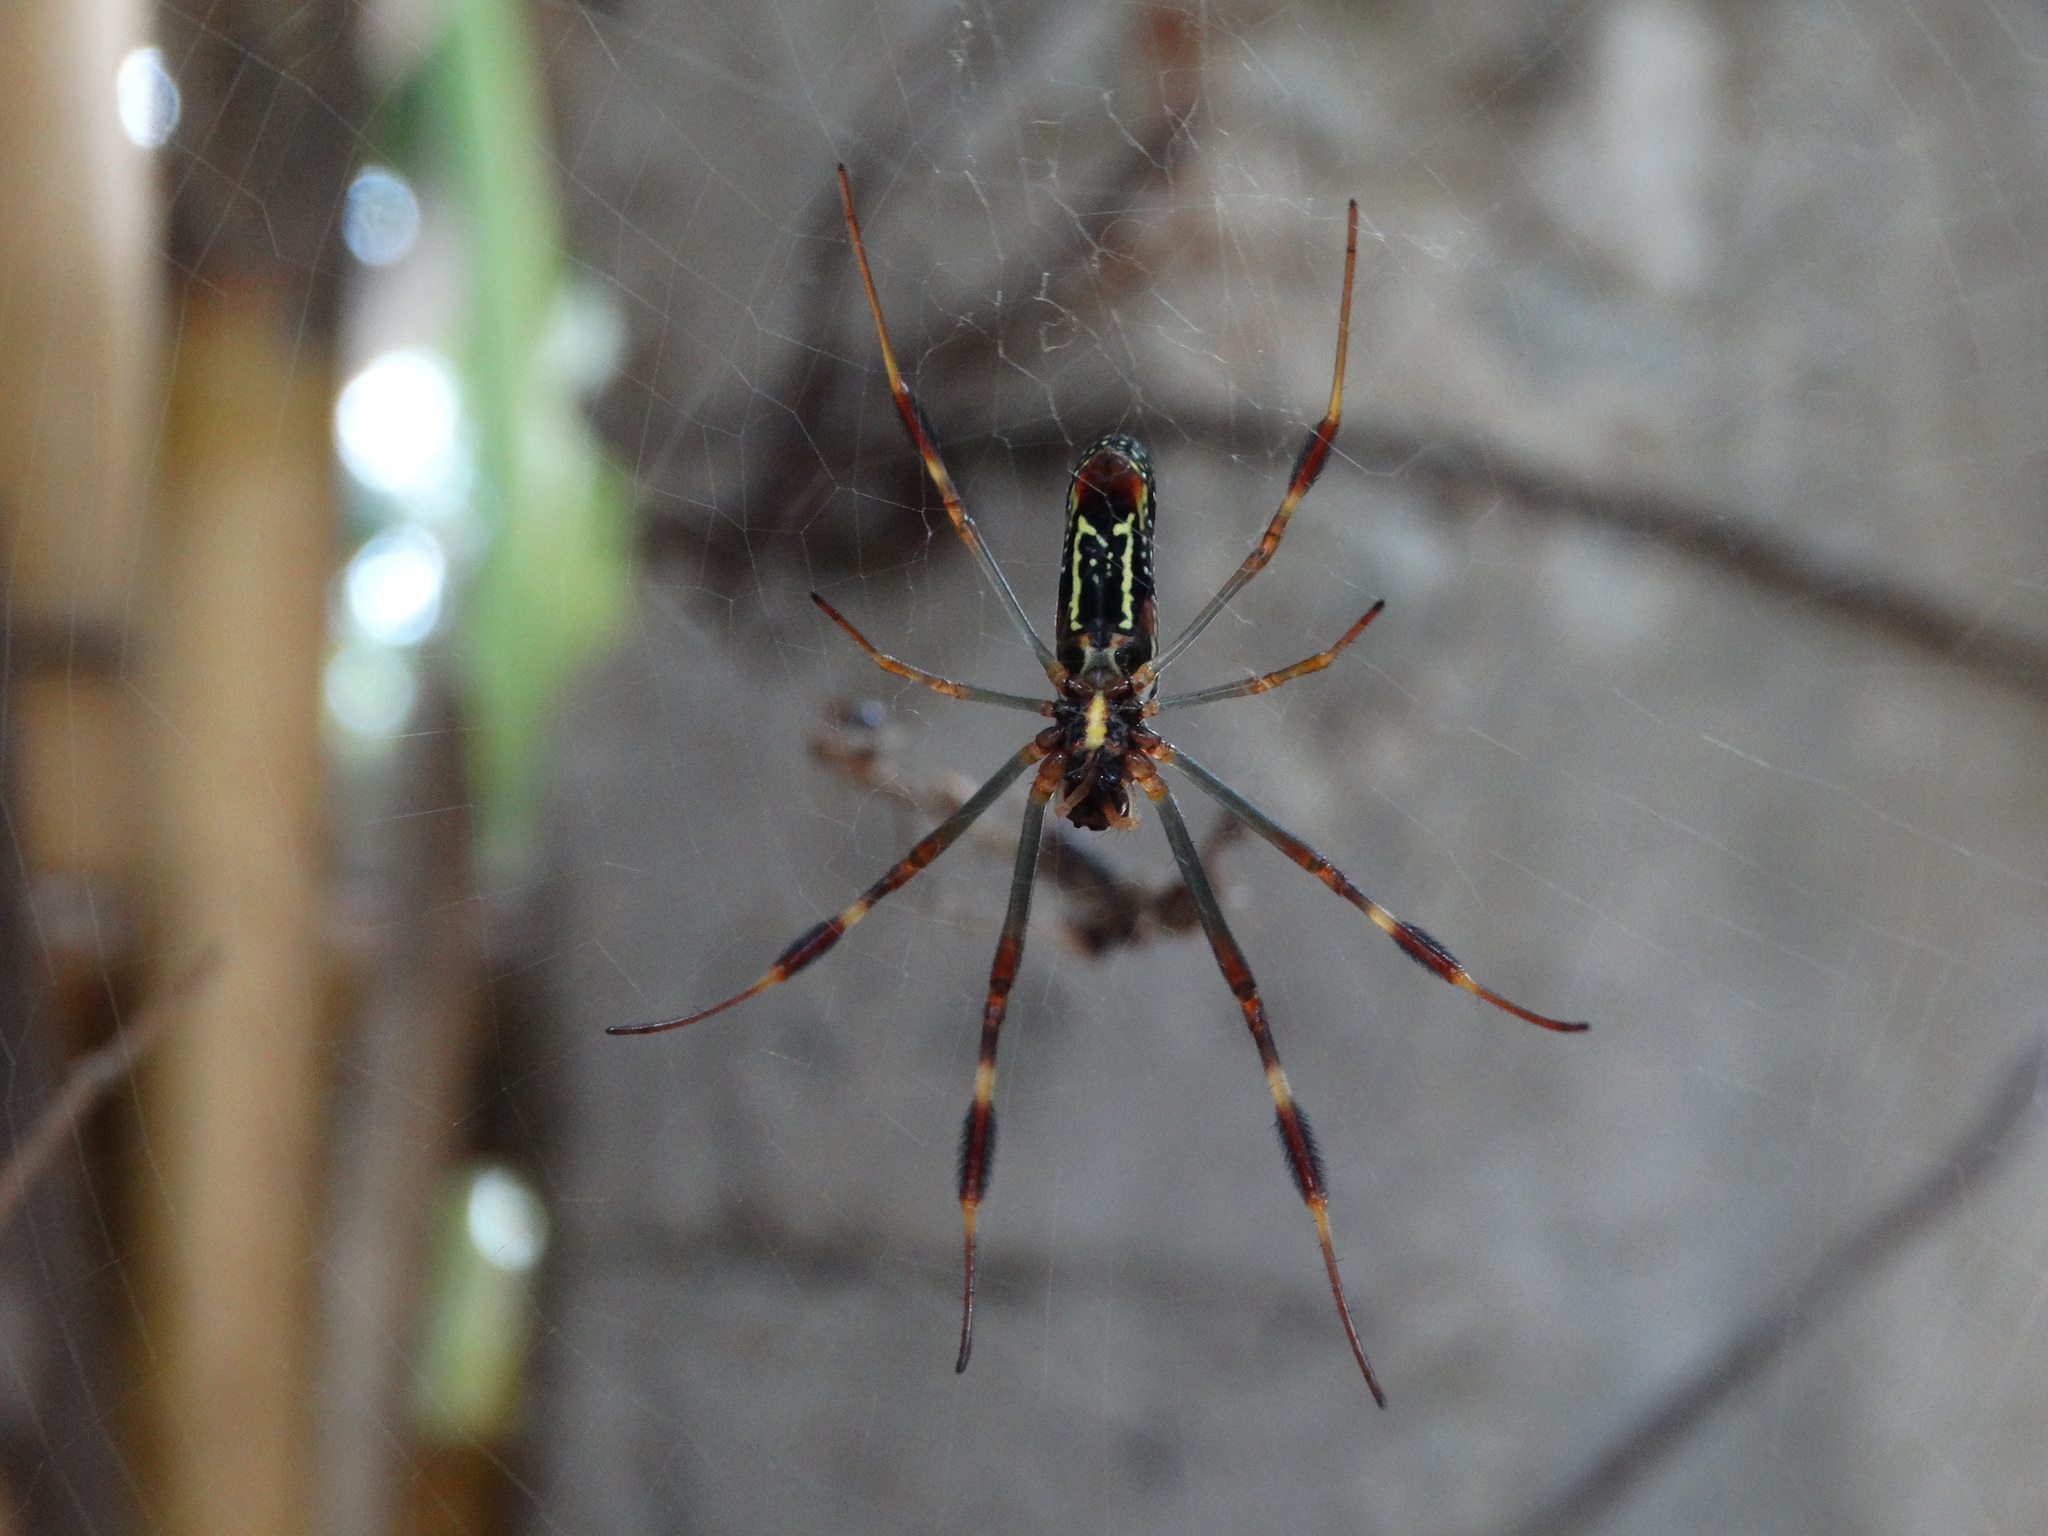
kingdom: Animalia
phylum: Arthropoda
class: Arachnida
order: Araneae
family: Araneidae
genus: Trichonephila
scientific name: Trichonephila clavipes
